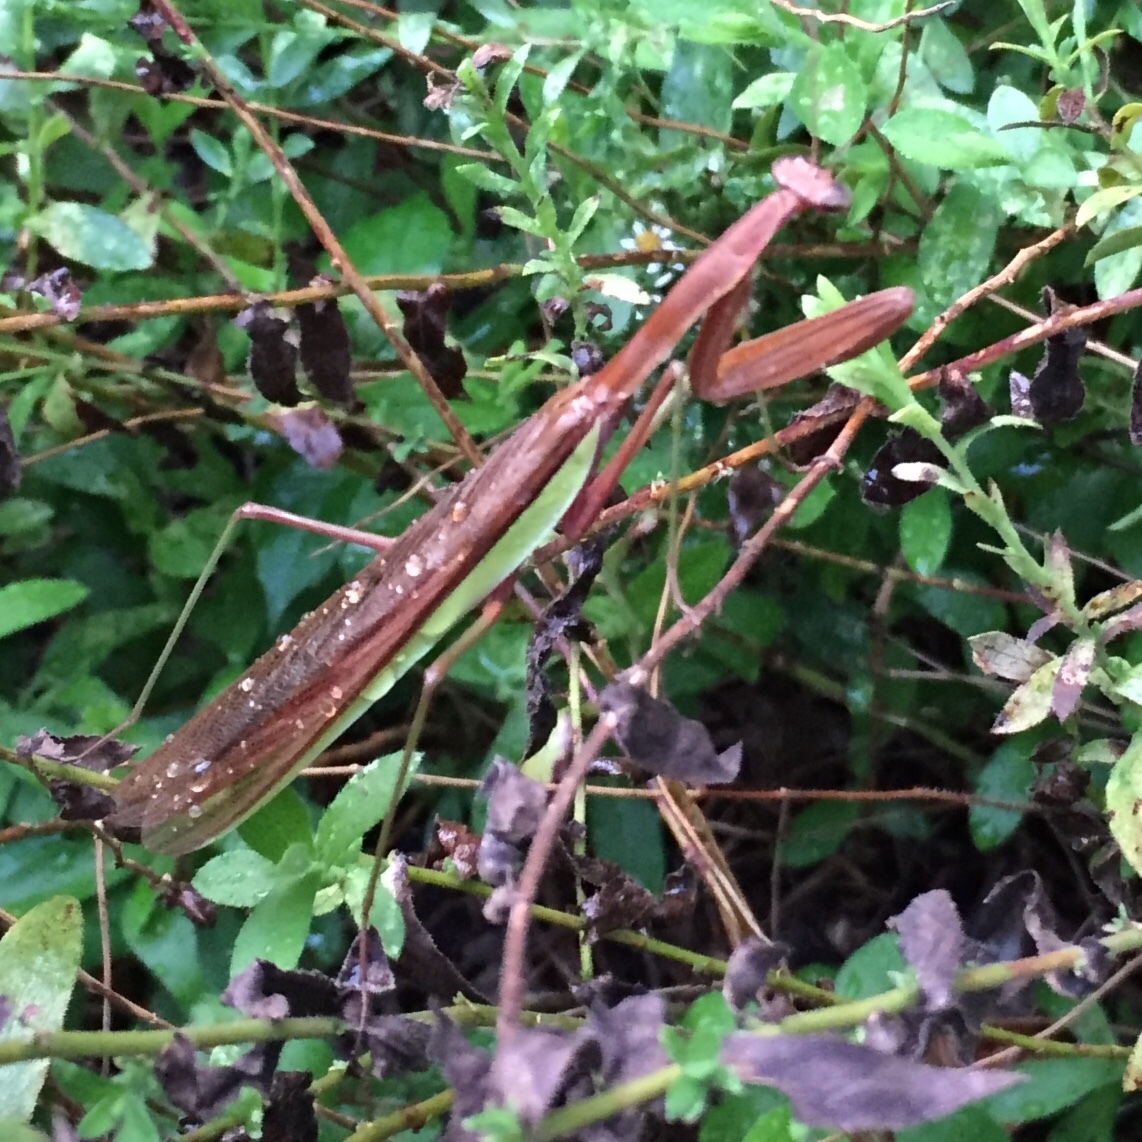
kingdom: Animalia
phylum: Arthropoda
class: Insecta
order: Mantodea
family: Mantidae
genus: Tenodera
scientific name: Tenodera sinensis
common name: Chinese mantis
